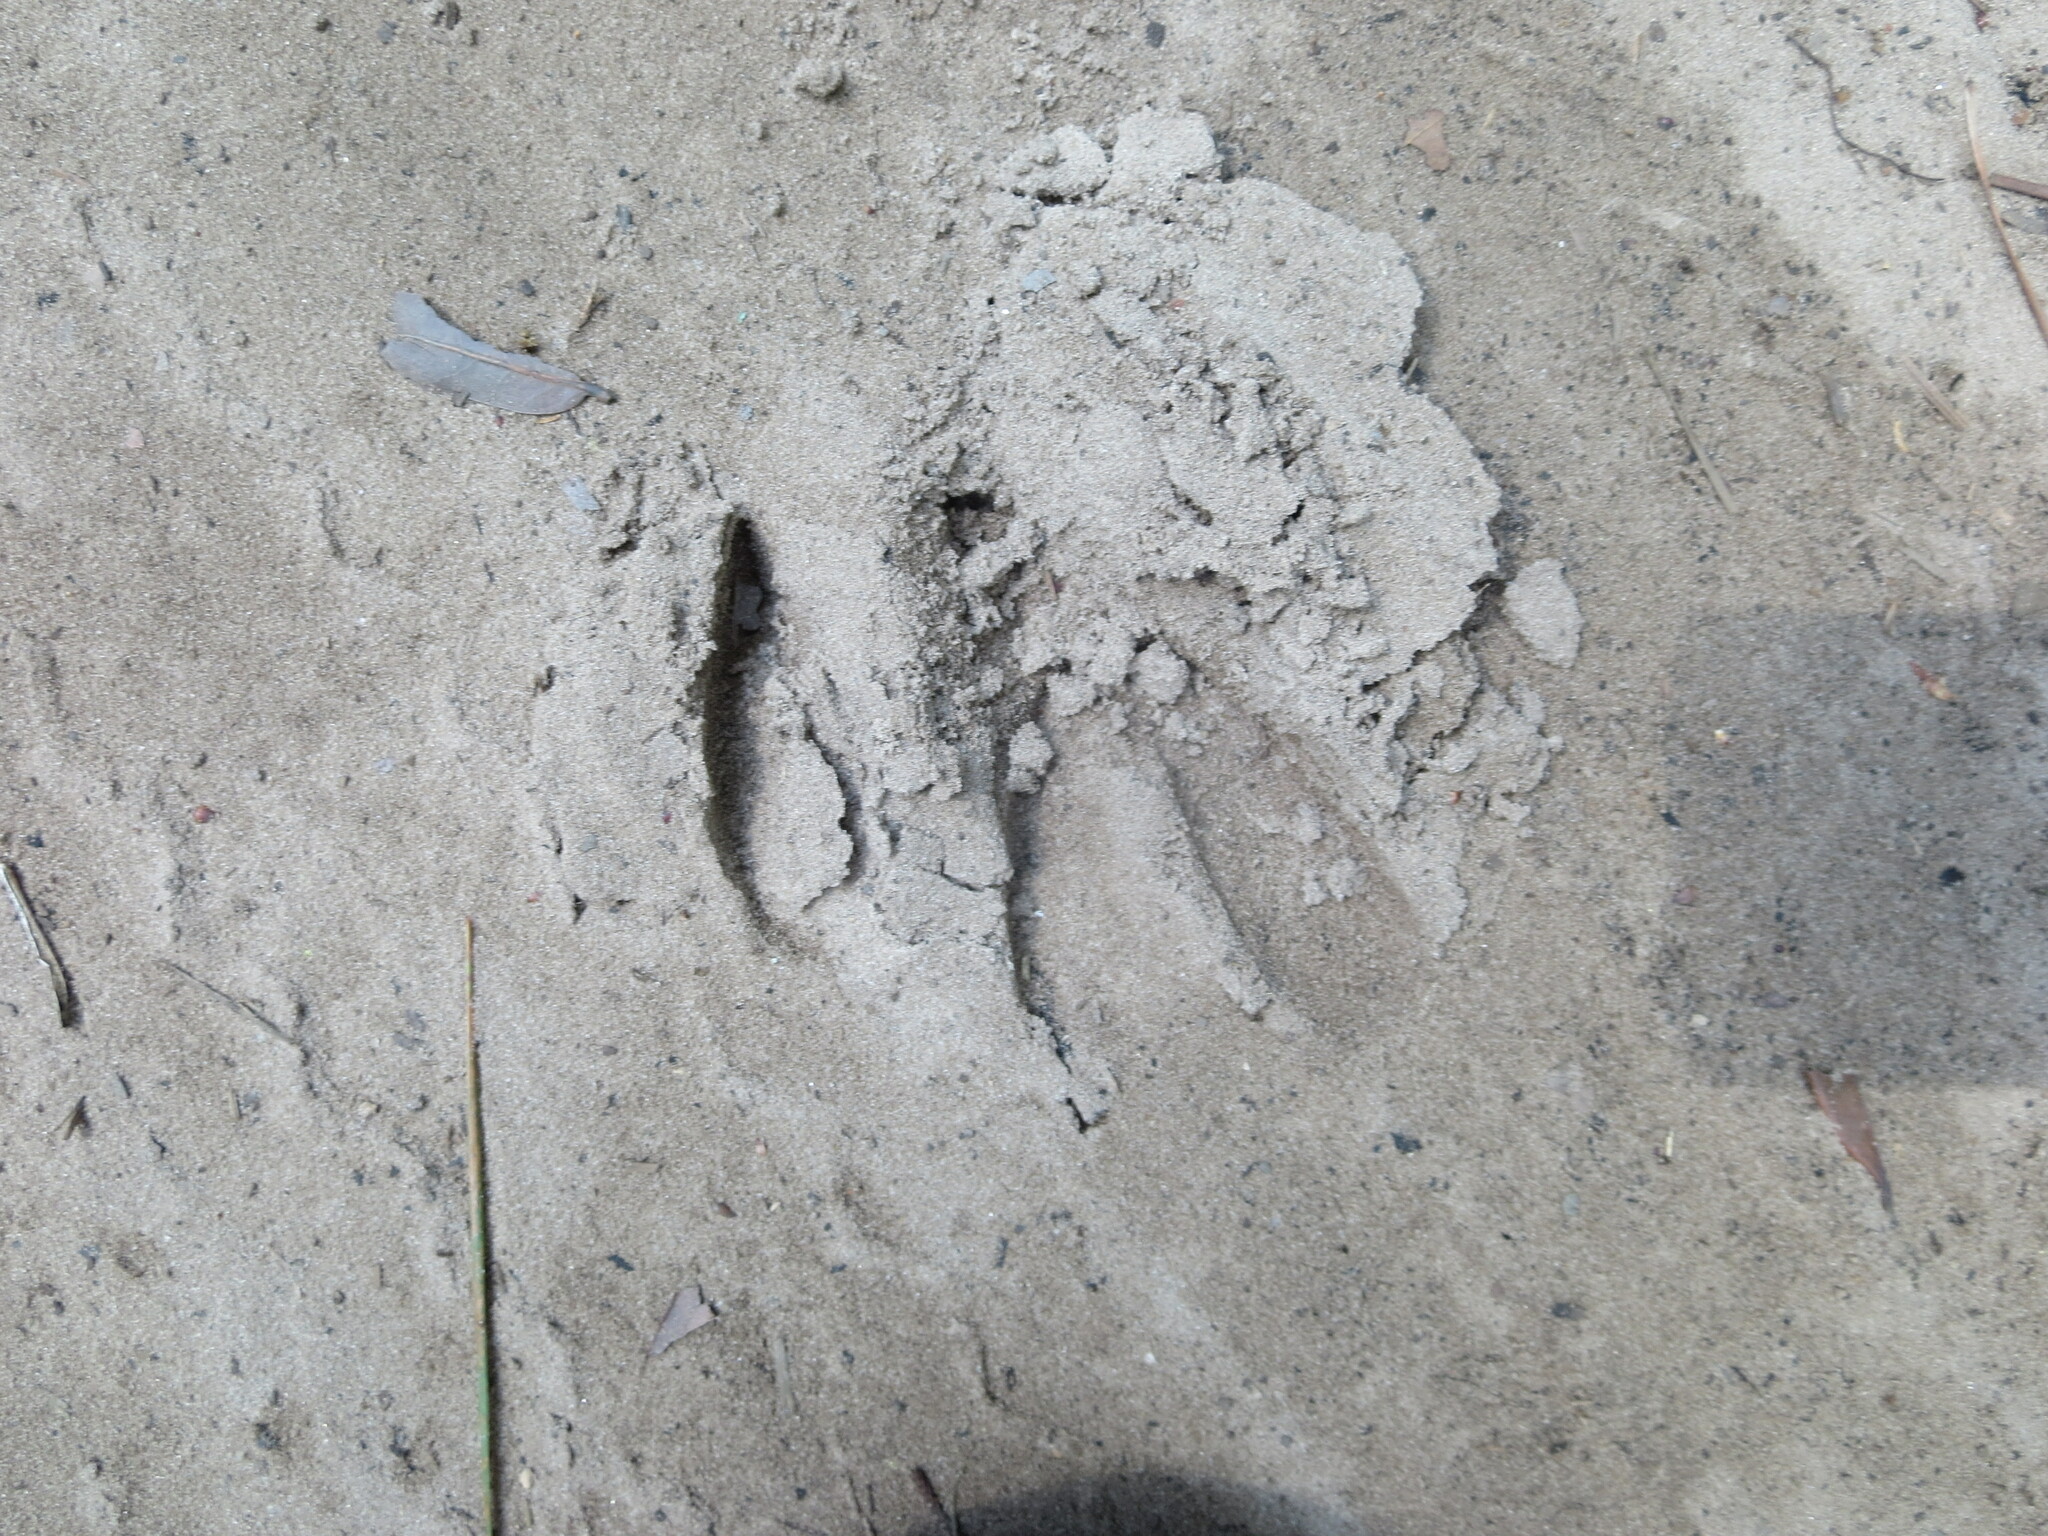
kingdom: Animalia
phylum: Chordata
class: Mammalia
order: Artiodactyla
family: Cervidae
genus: Odocoileus
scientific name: Odocoileus virginianus
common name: White-tailed deer
